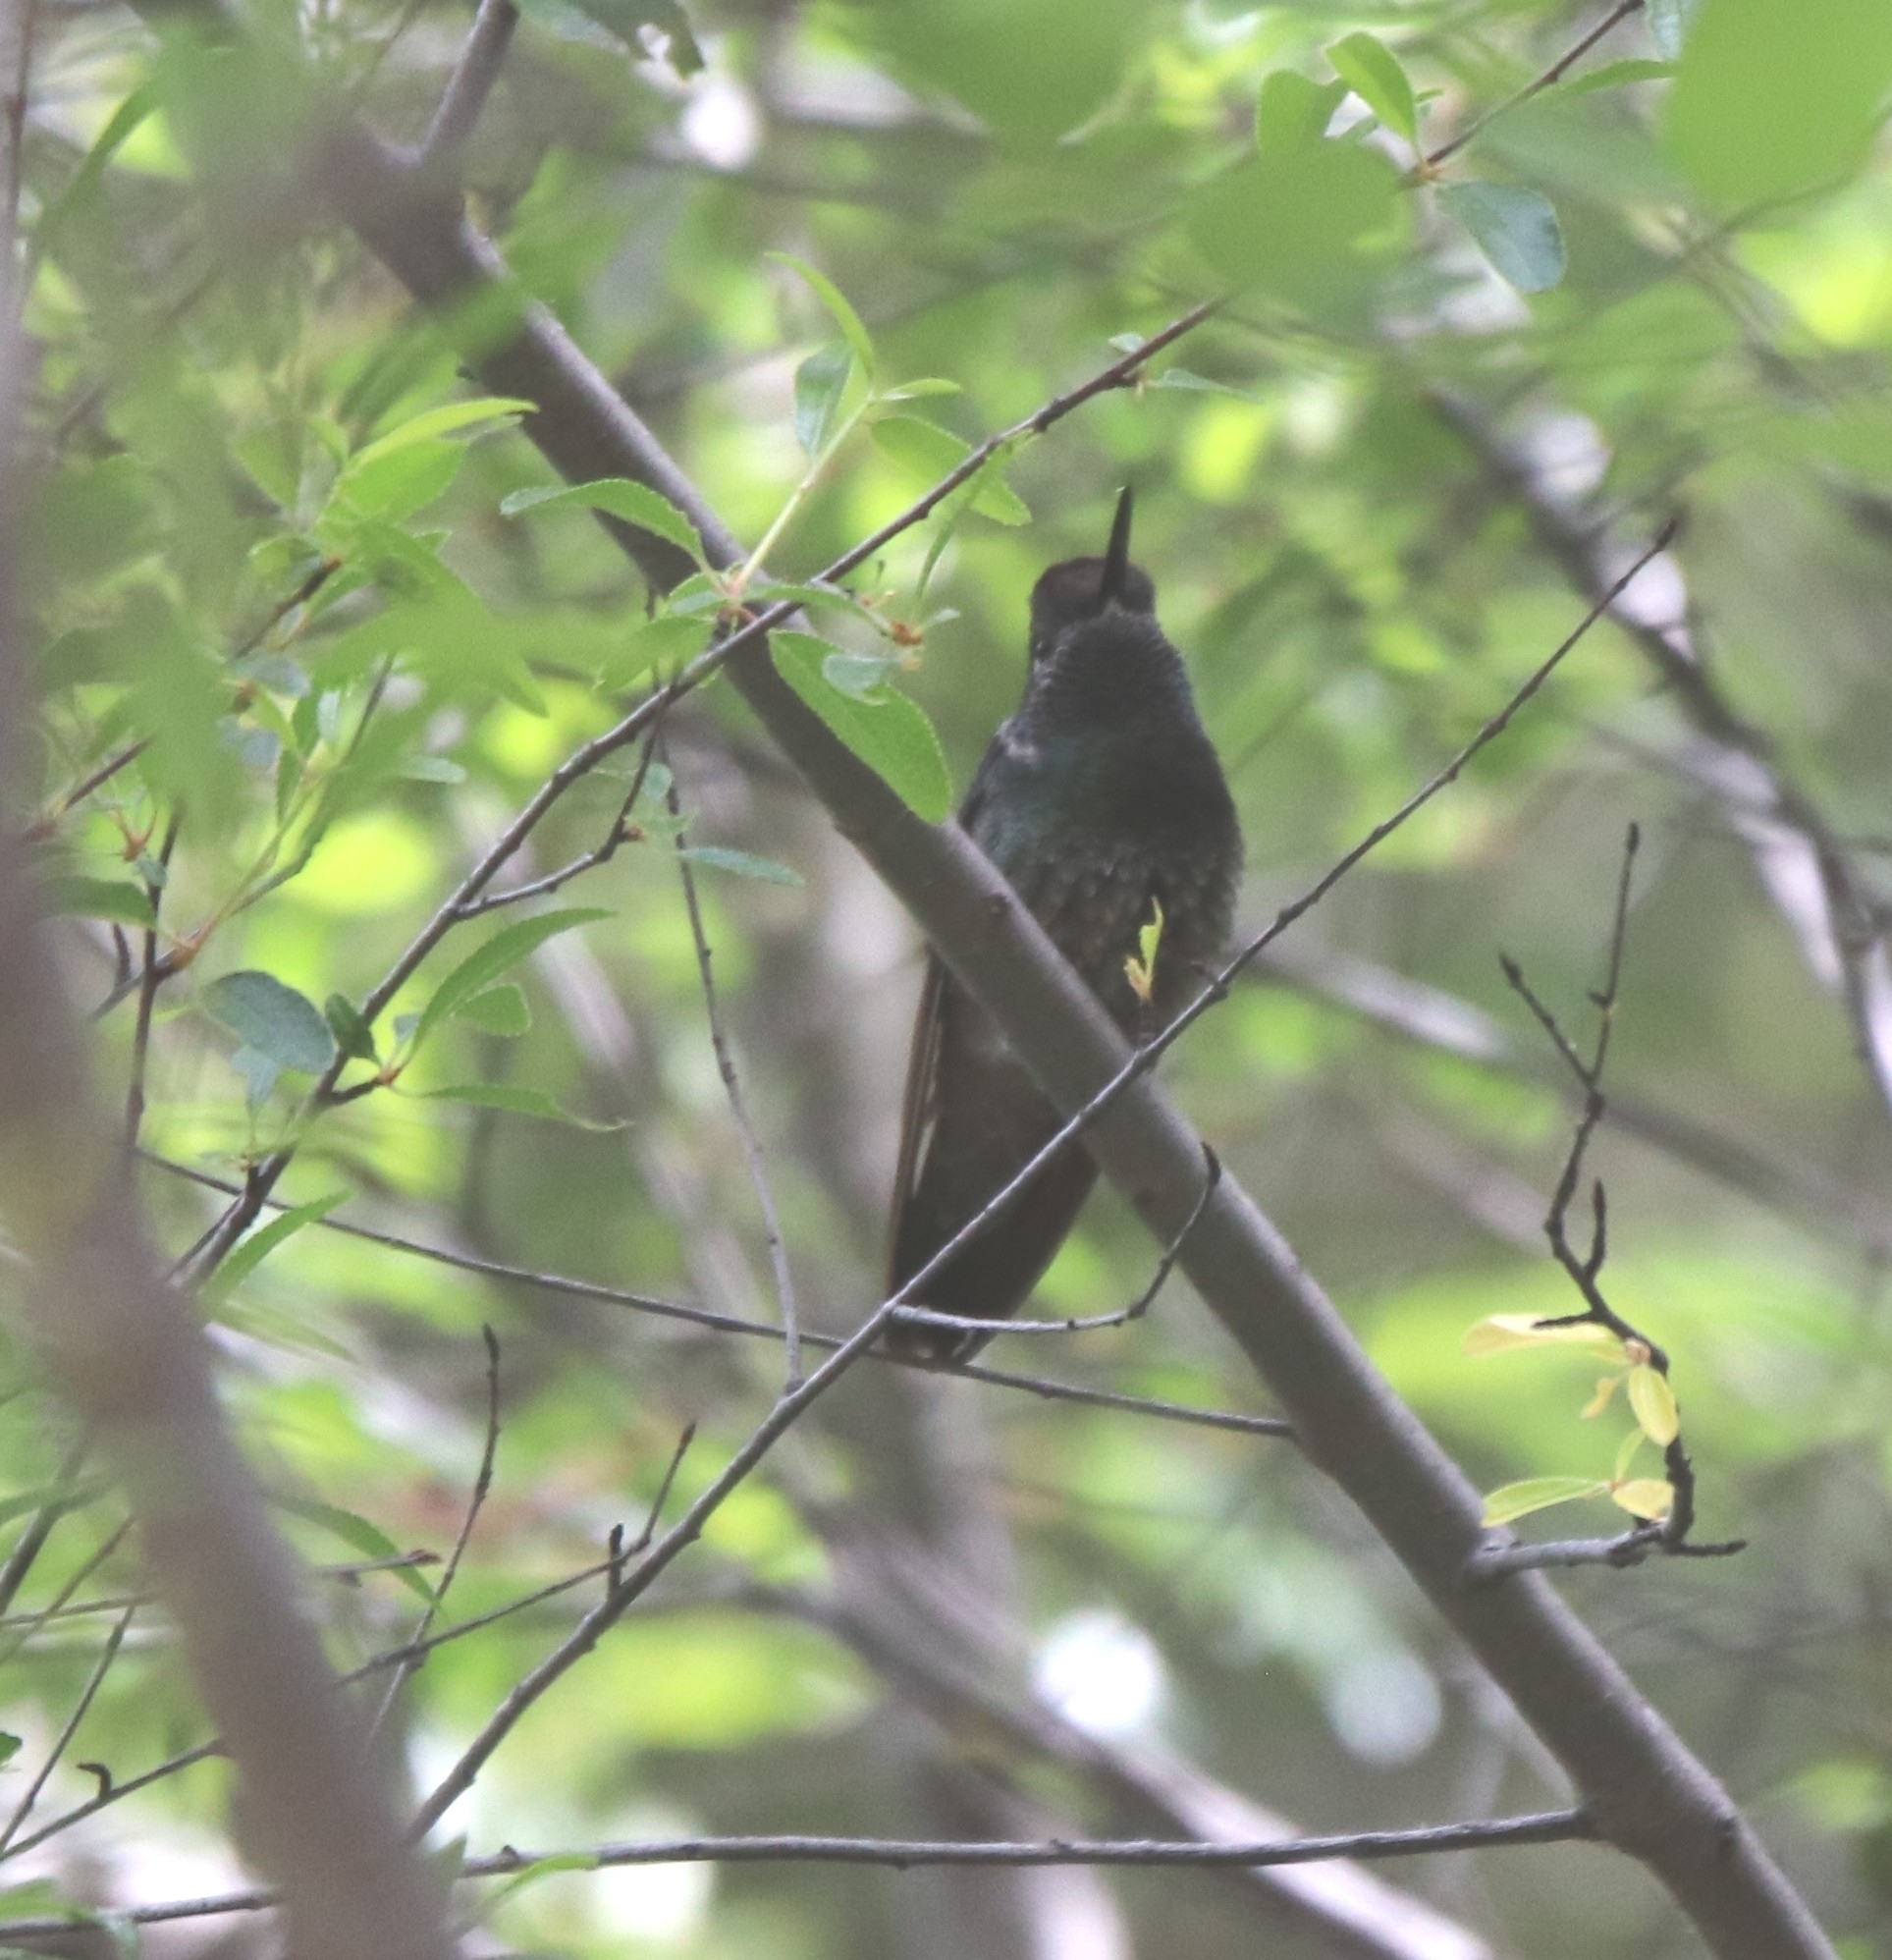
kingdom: Animalia
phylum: Chordata
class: Aves
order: Apodiformes
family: Trochilidae
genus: Eugenes
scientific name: Eugenes fulgens
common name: Magnificent hummingbird
